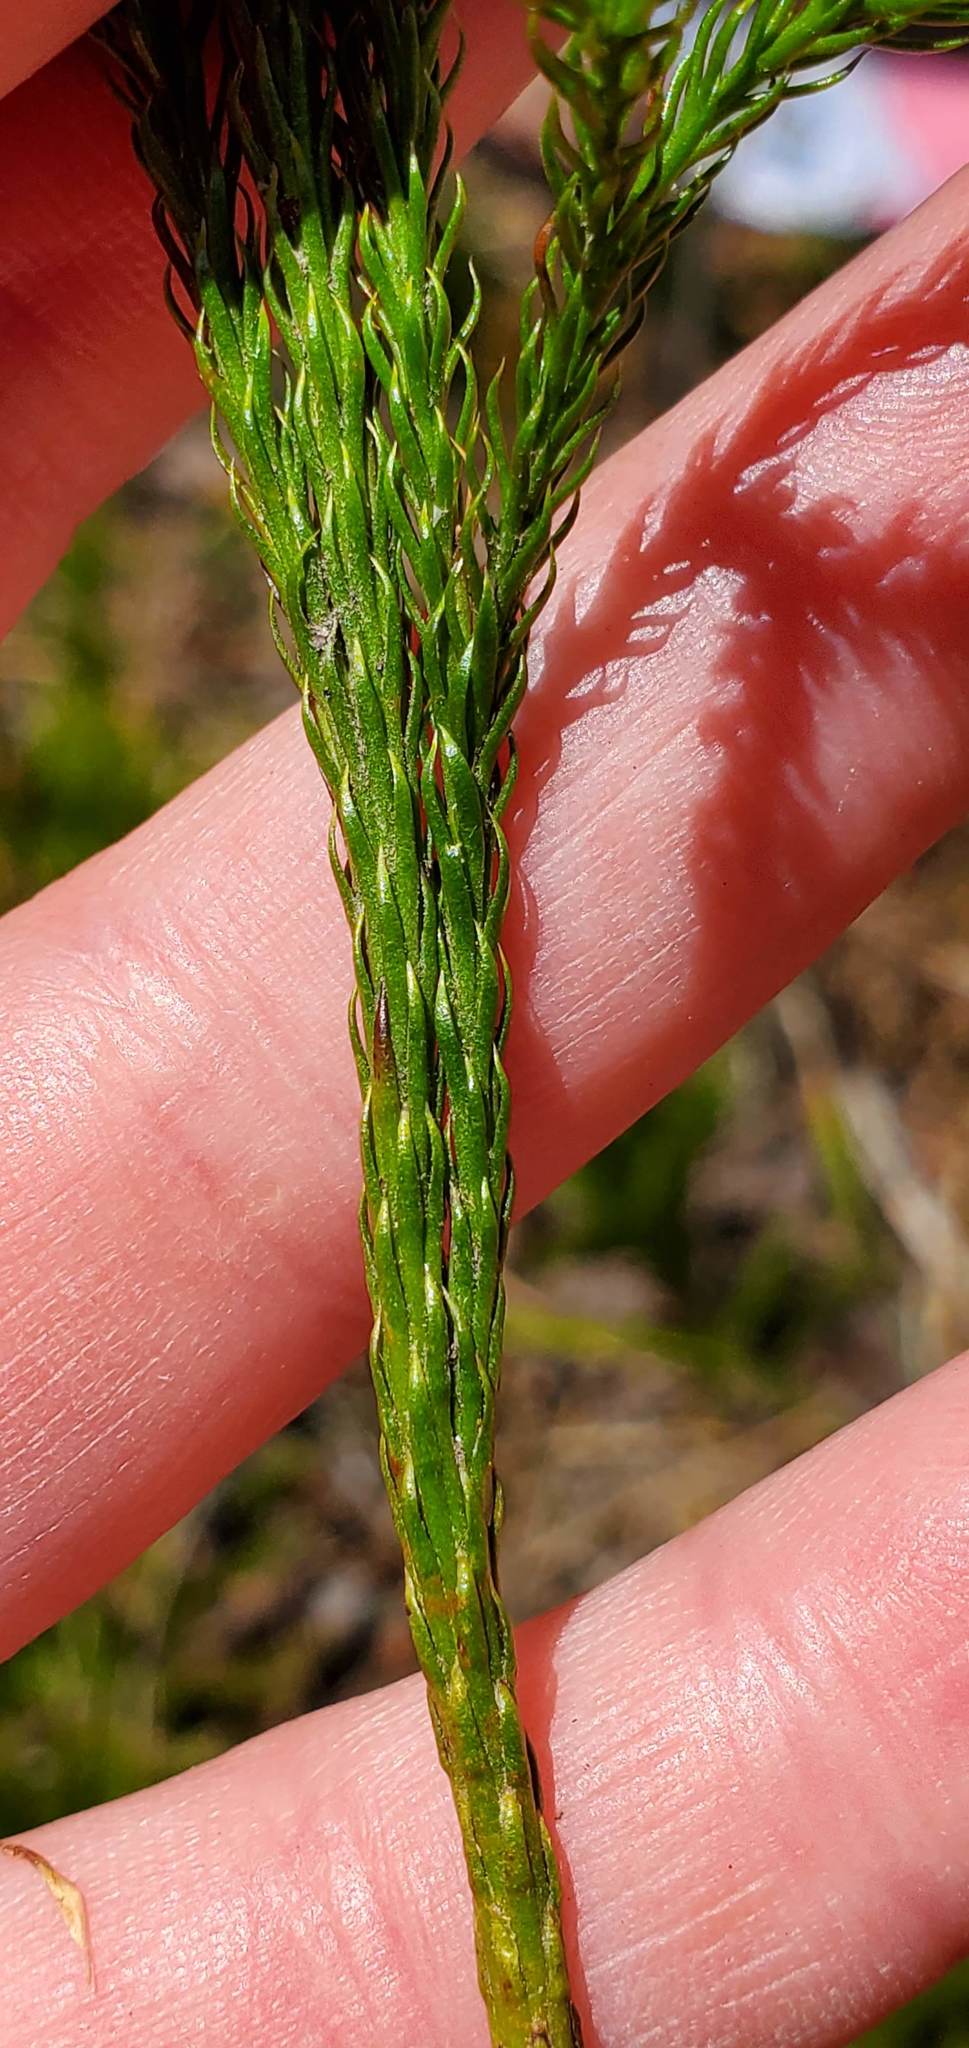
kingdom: Plantae
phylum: Tracheophyta
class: Lycopodiopsida
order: Lycopodiales
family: Lycopodiaceae
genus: Dendrolycopodium
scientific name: Dendrolycopodium hickeyi
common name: Hickey's clubmoss
